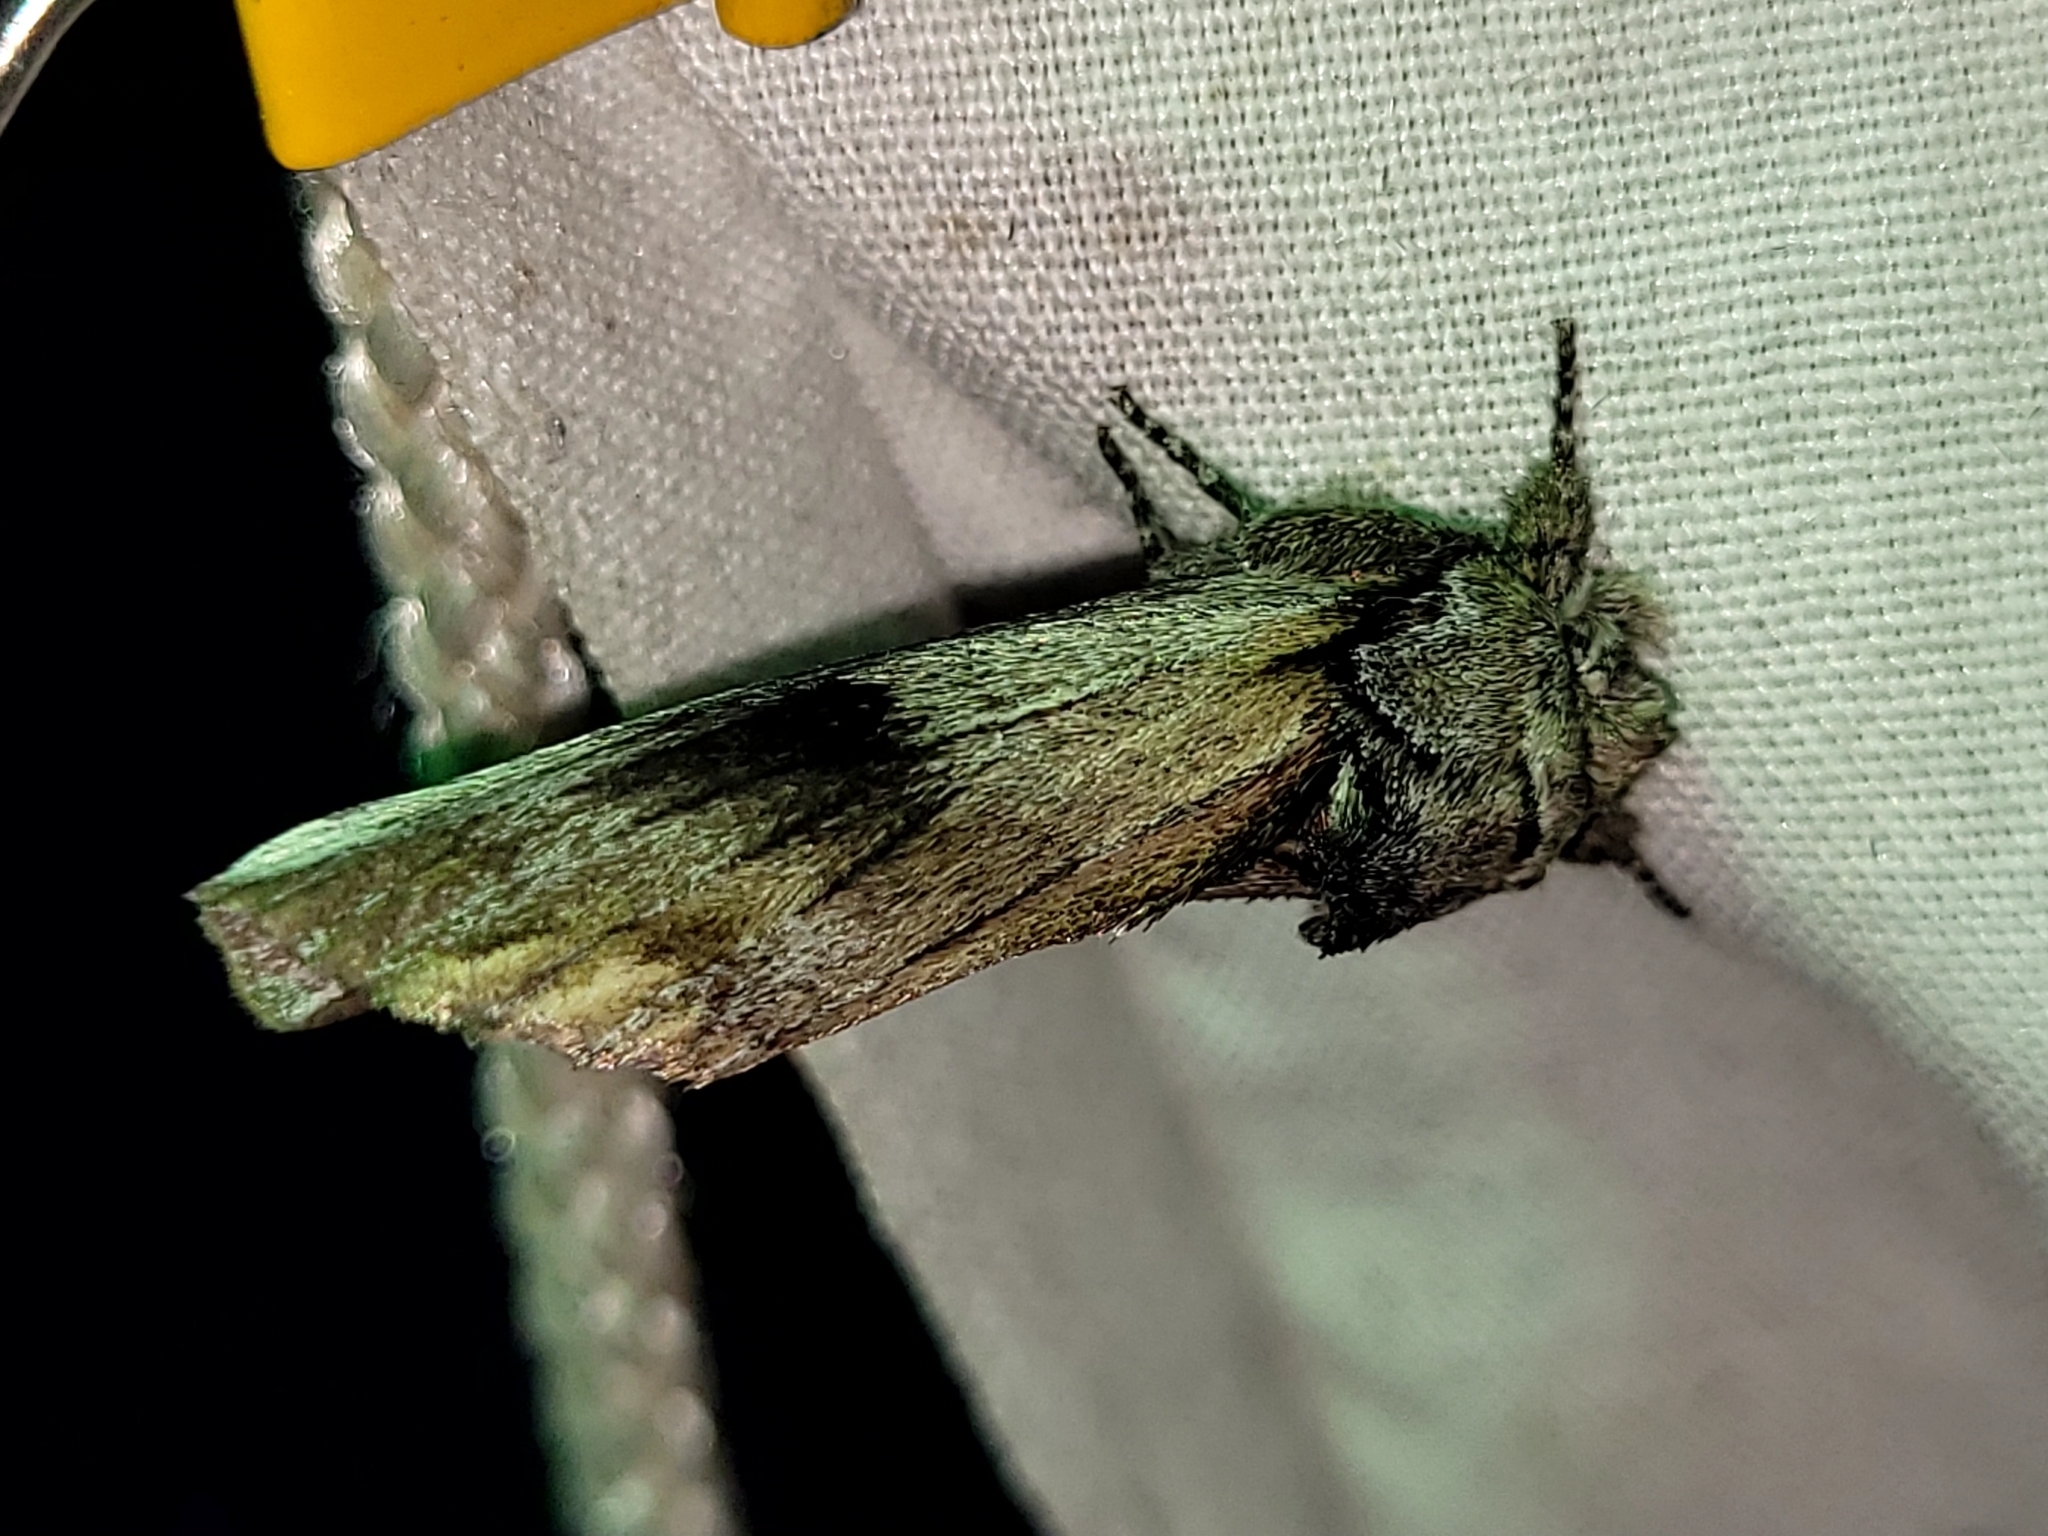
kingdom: Animalia
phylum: Arthropoda
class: Insecta
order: Lepidoptera
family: Notodontidae
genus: Schizura
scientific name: Schizura
